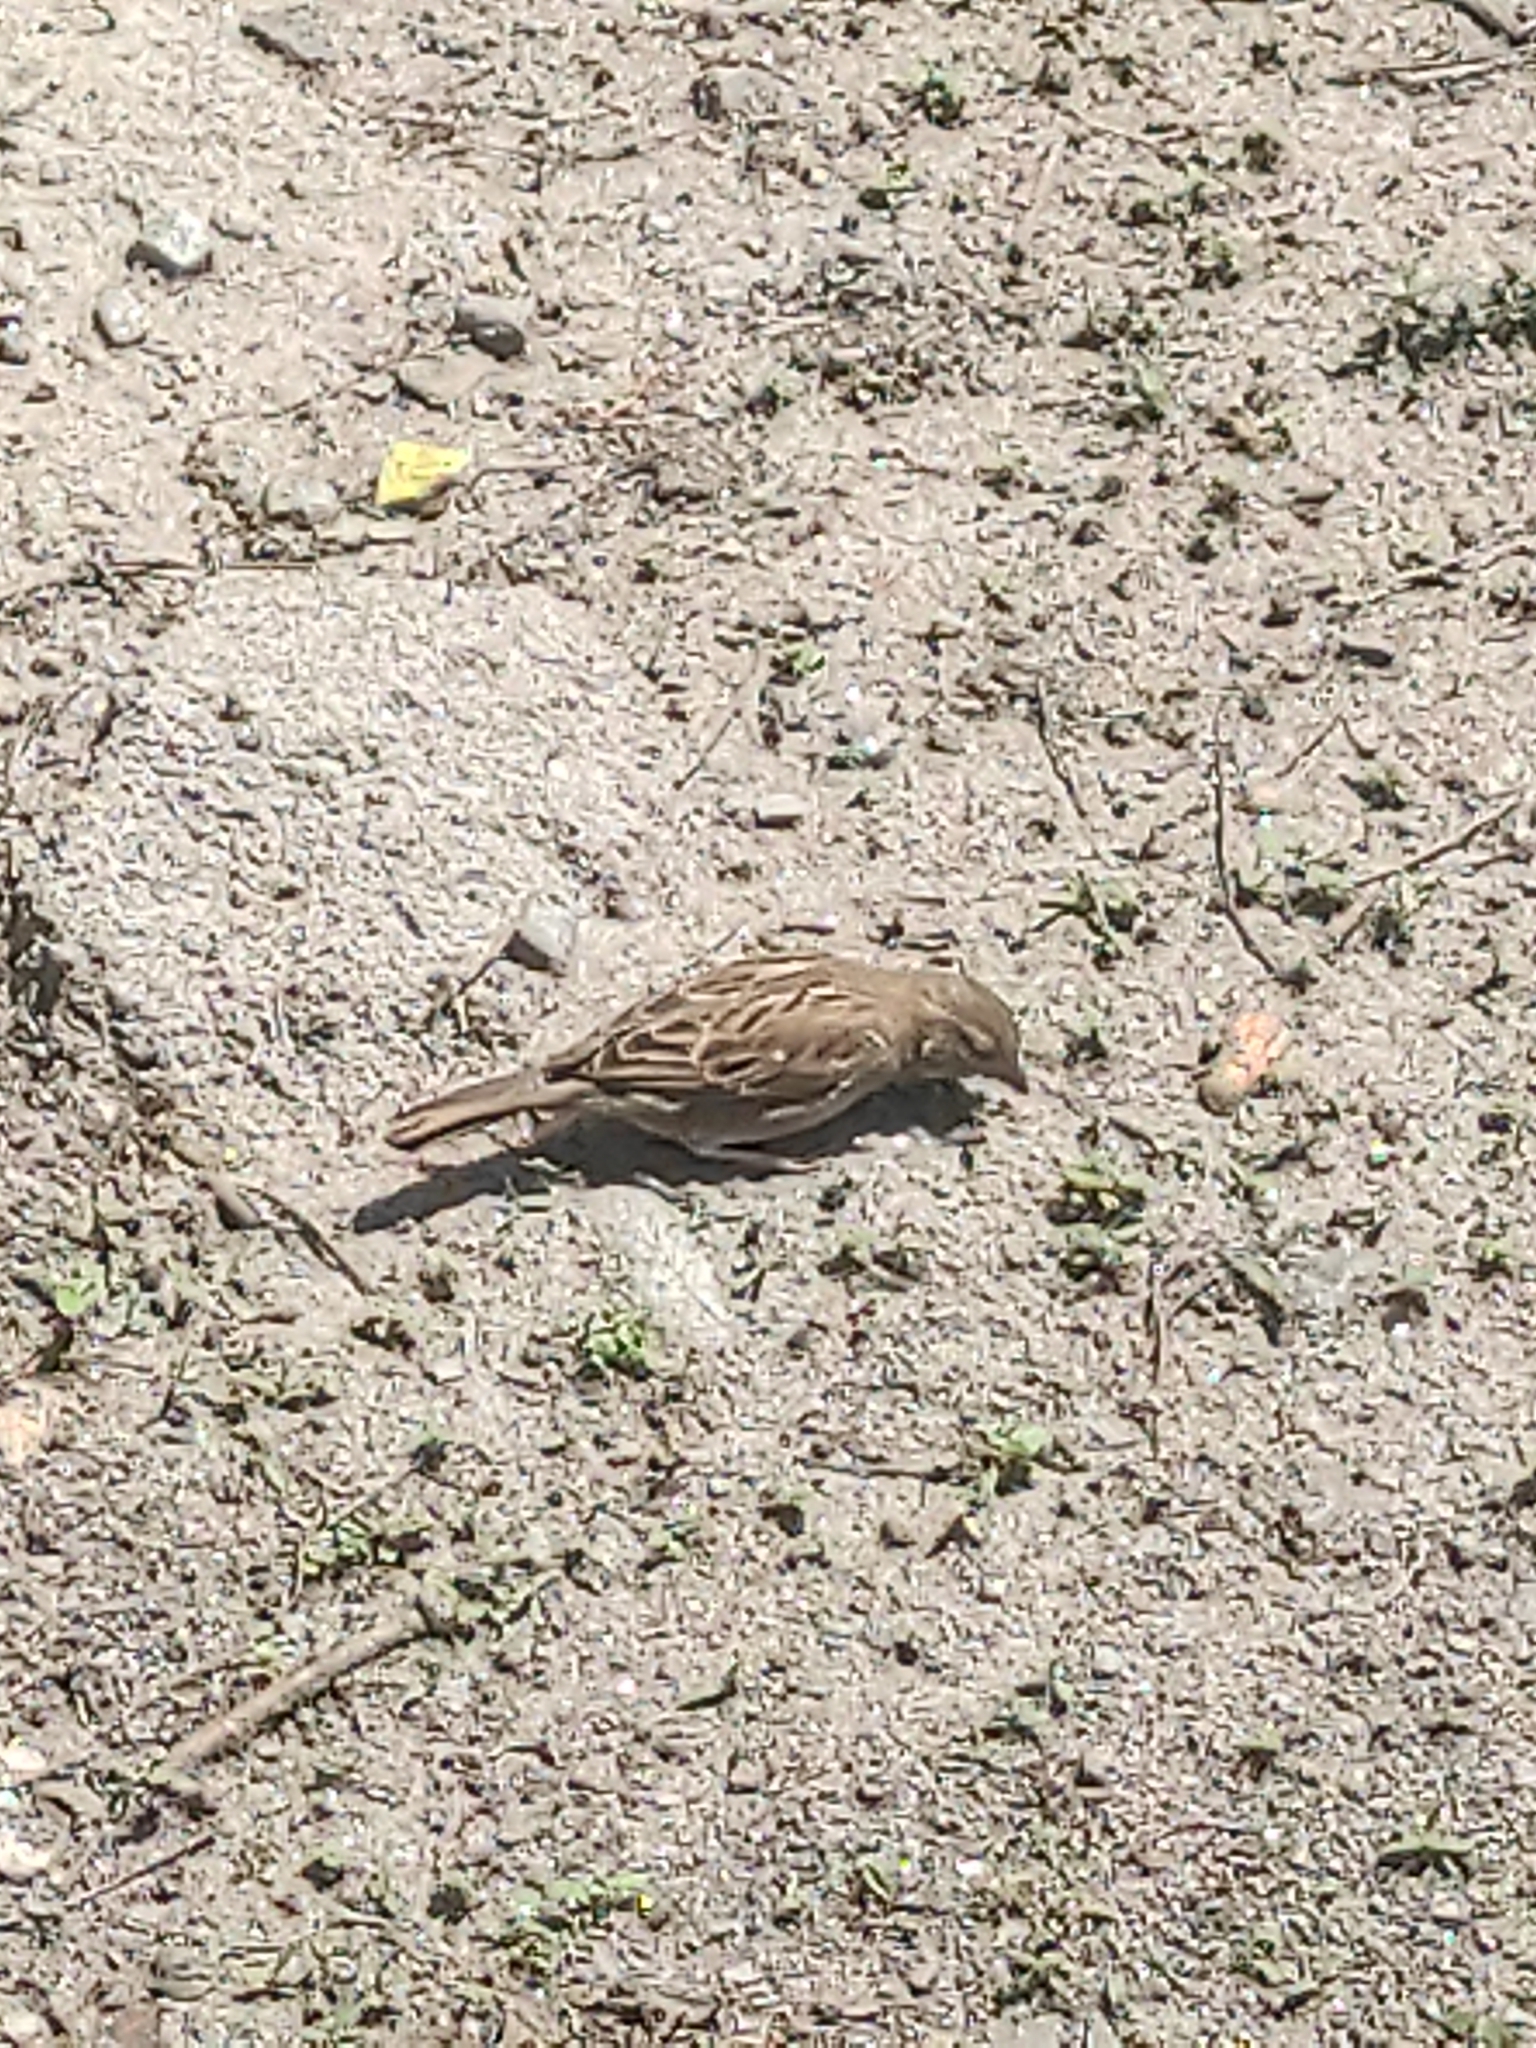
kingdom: Animalia
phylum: Chordata
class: Aves
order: Passeriformes
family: Passeridae
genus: Passer
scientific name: Passer domesticus
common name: House sparrow
